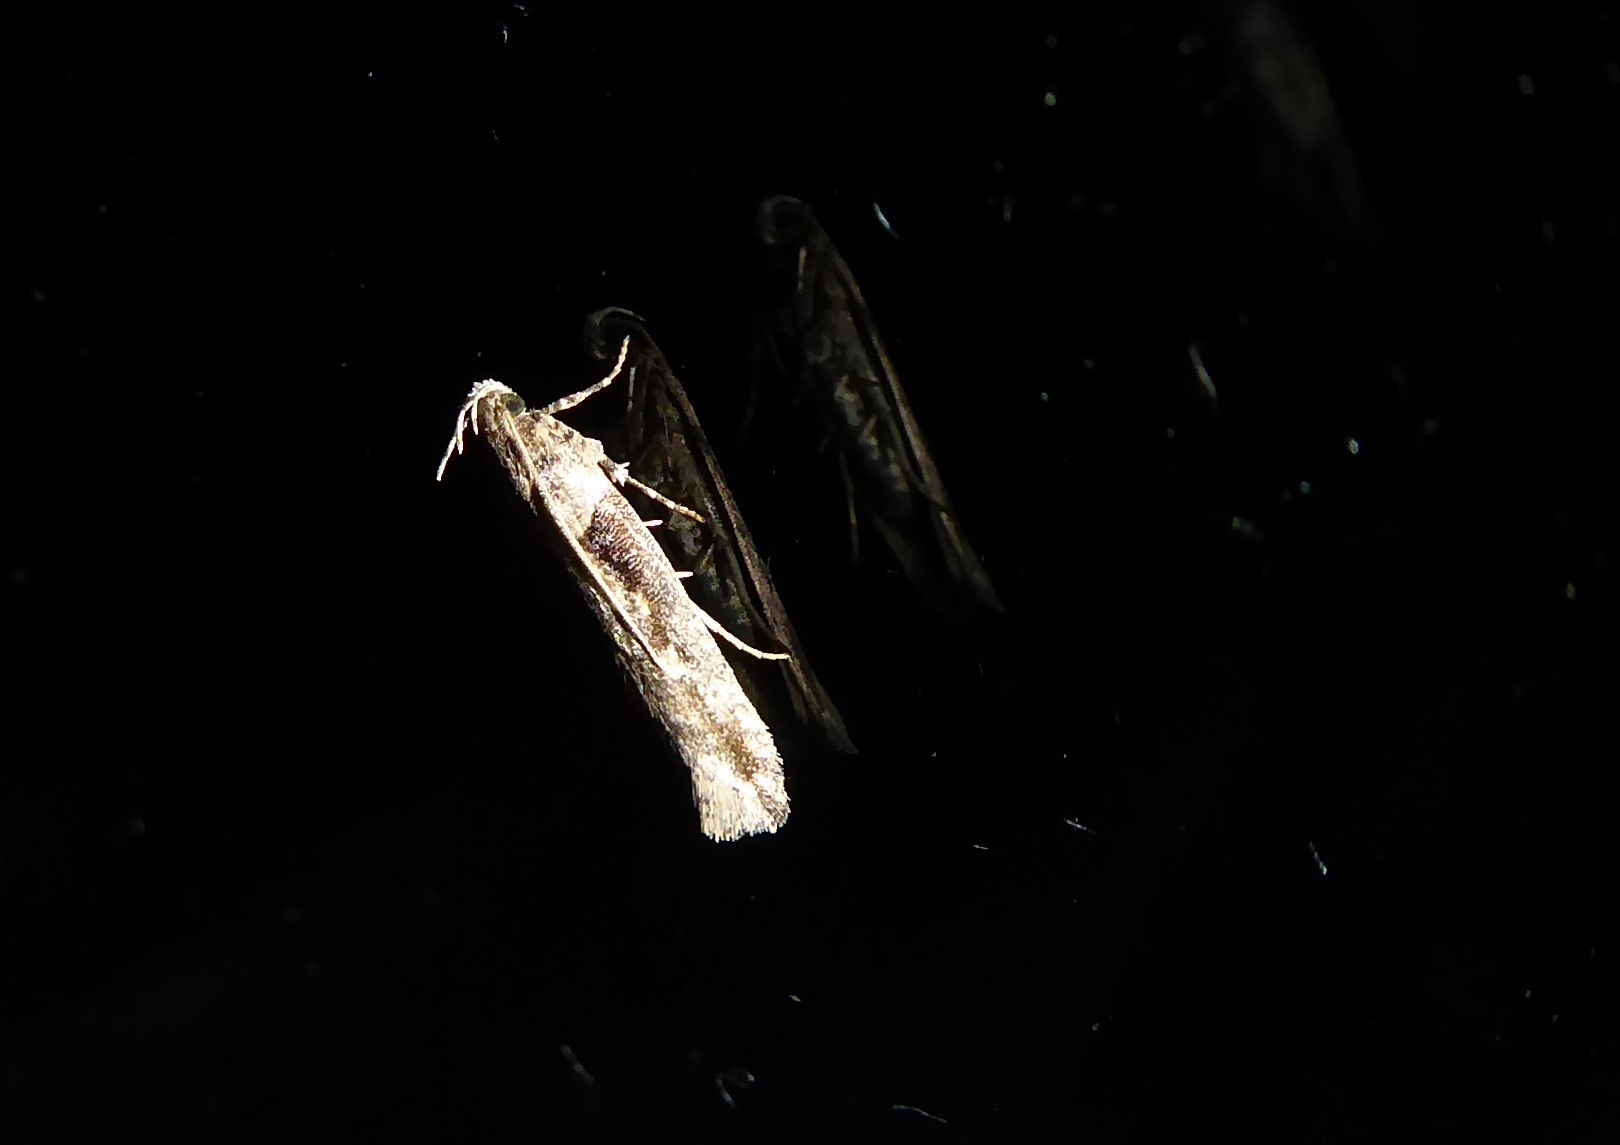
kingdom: Animalia
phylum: Arthropoda
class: Insecta
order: Lepidoptera
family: Gelechiidae
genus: Symmetrischema
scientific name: Symmetrischema tangolias
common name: Moth
